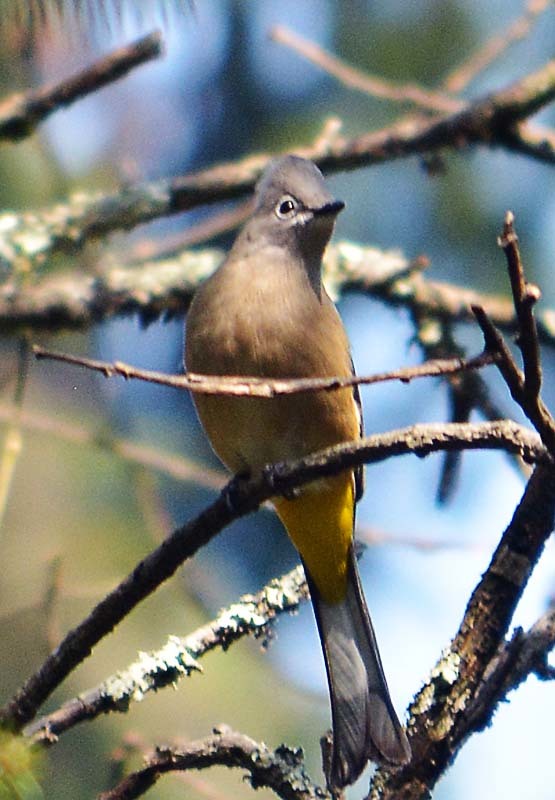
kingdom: Animalia
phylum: Chordata
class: Aves
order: Passeriformes
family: Ptilogonatidae
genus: Ptilogonys
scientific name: Ptilogonys cinereus
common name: Gray silky-flycatcher
